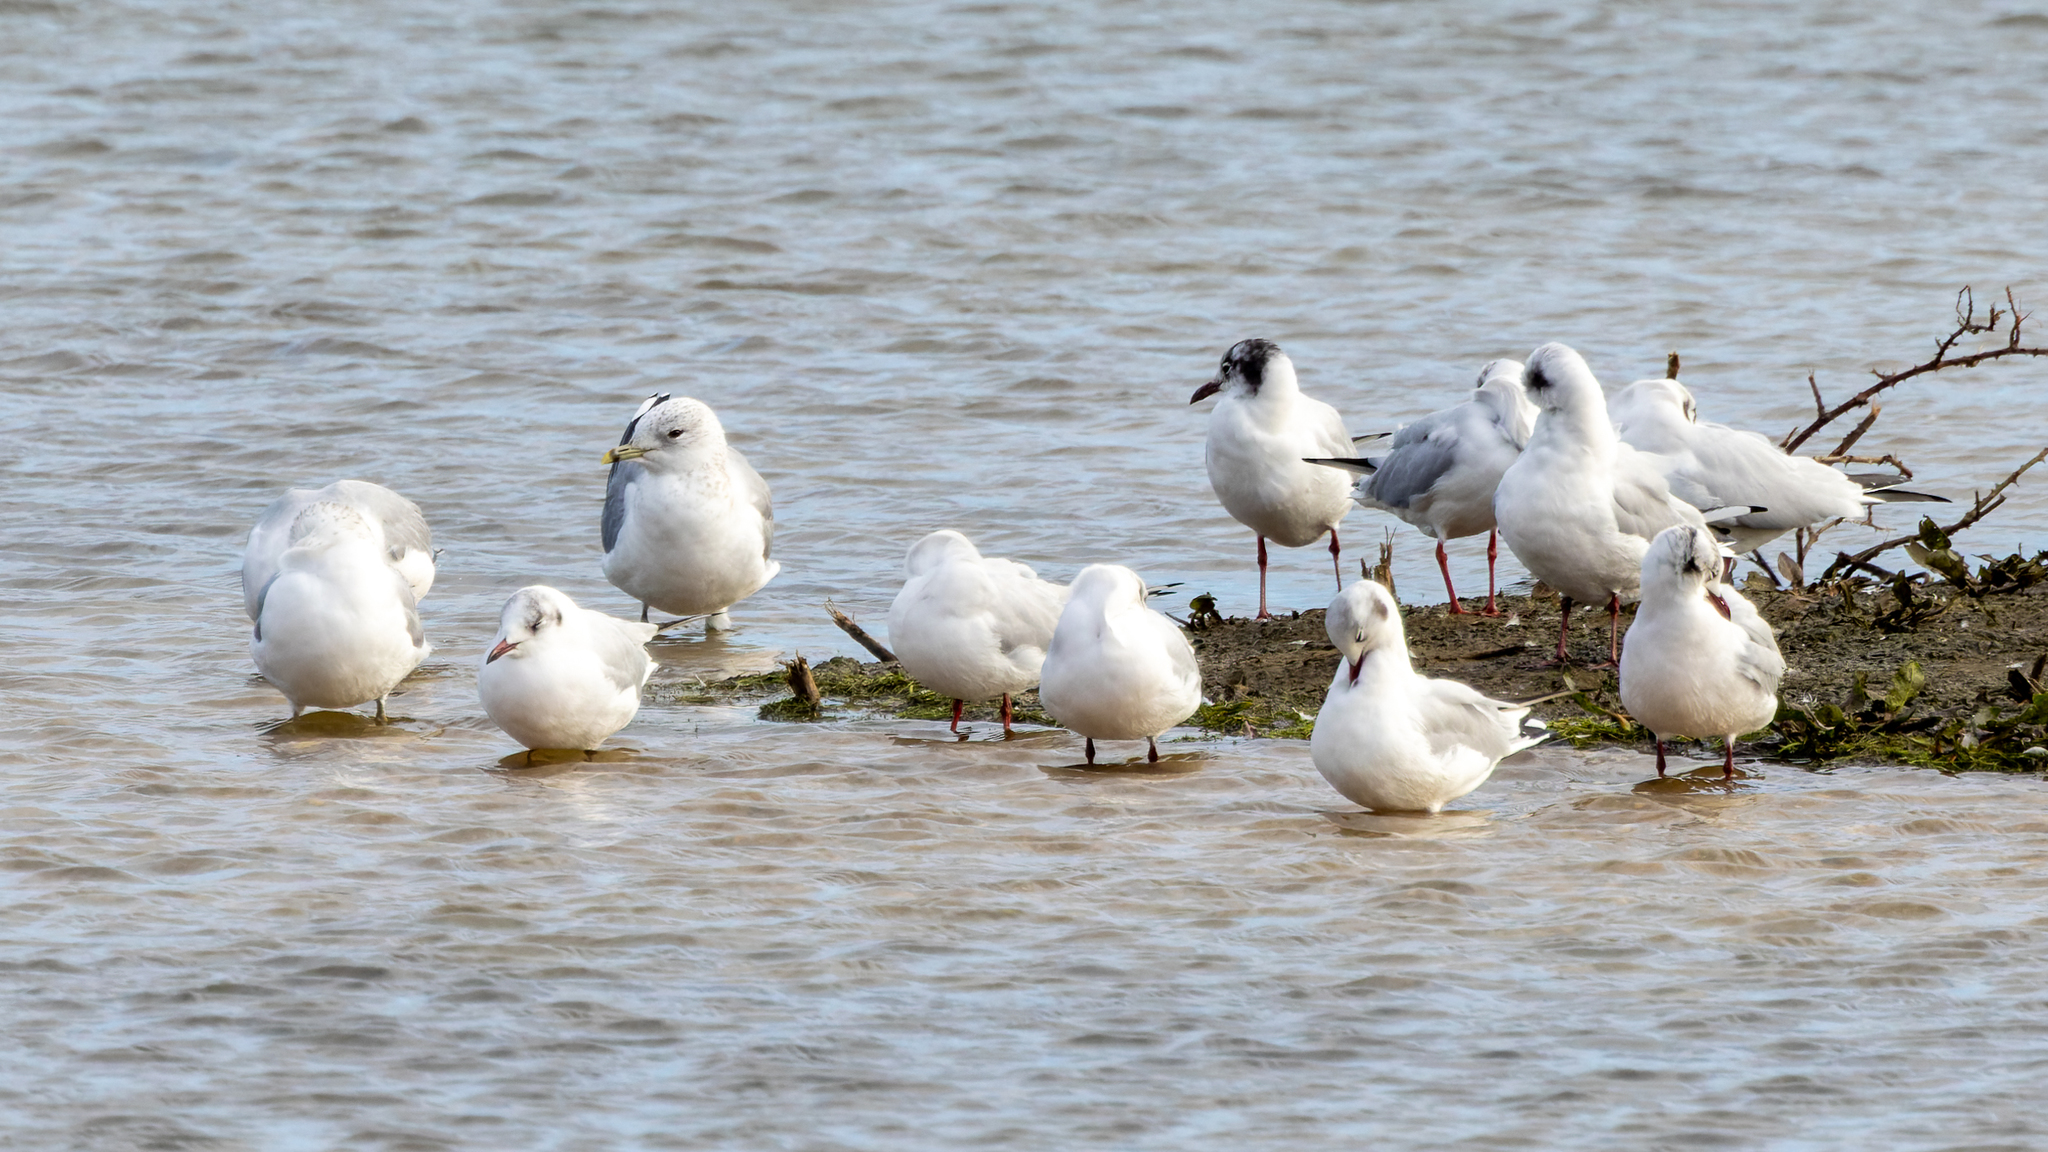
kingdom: Animalia
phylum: Chordata
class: Aves
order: Charadriiformes
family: Laridae
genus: Chroicocephalus
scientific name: Chroicocephalus ridibundus
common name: Black-headed gull
